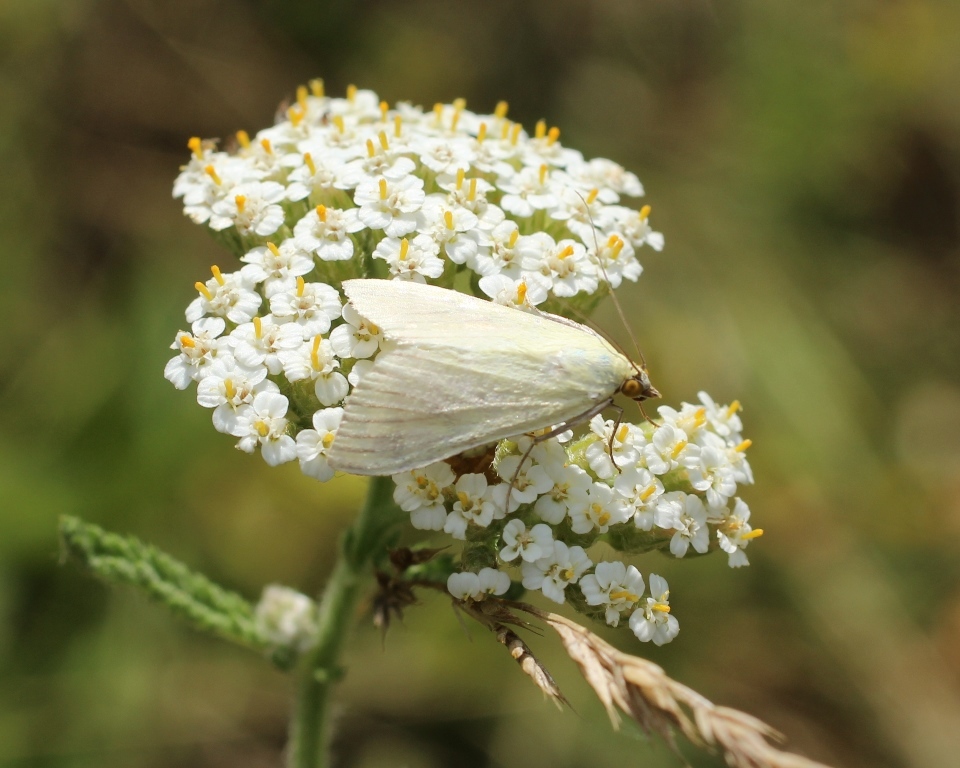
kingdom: Animalia
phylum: Arthropoda
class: Insecta
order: Lepidoptera
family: Crambidae
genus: Sitochroa
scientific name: Sitochroa palealis
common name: Greenish-yellow sitochroa moth
